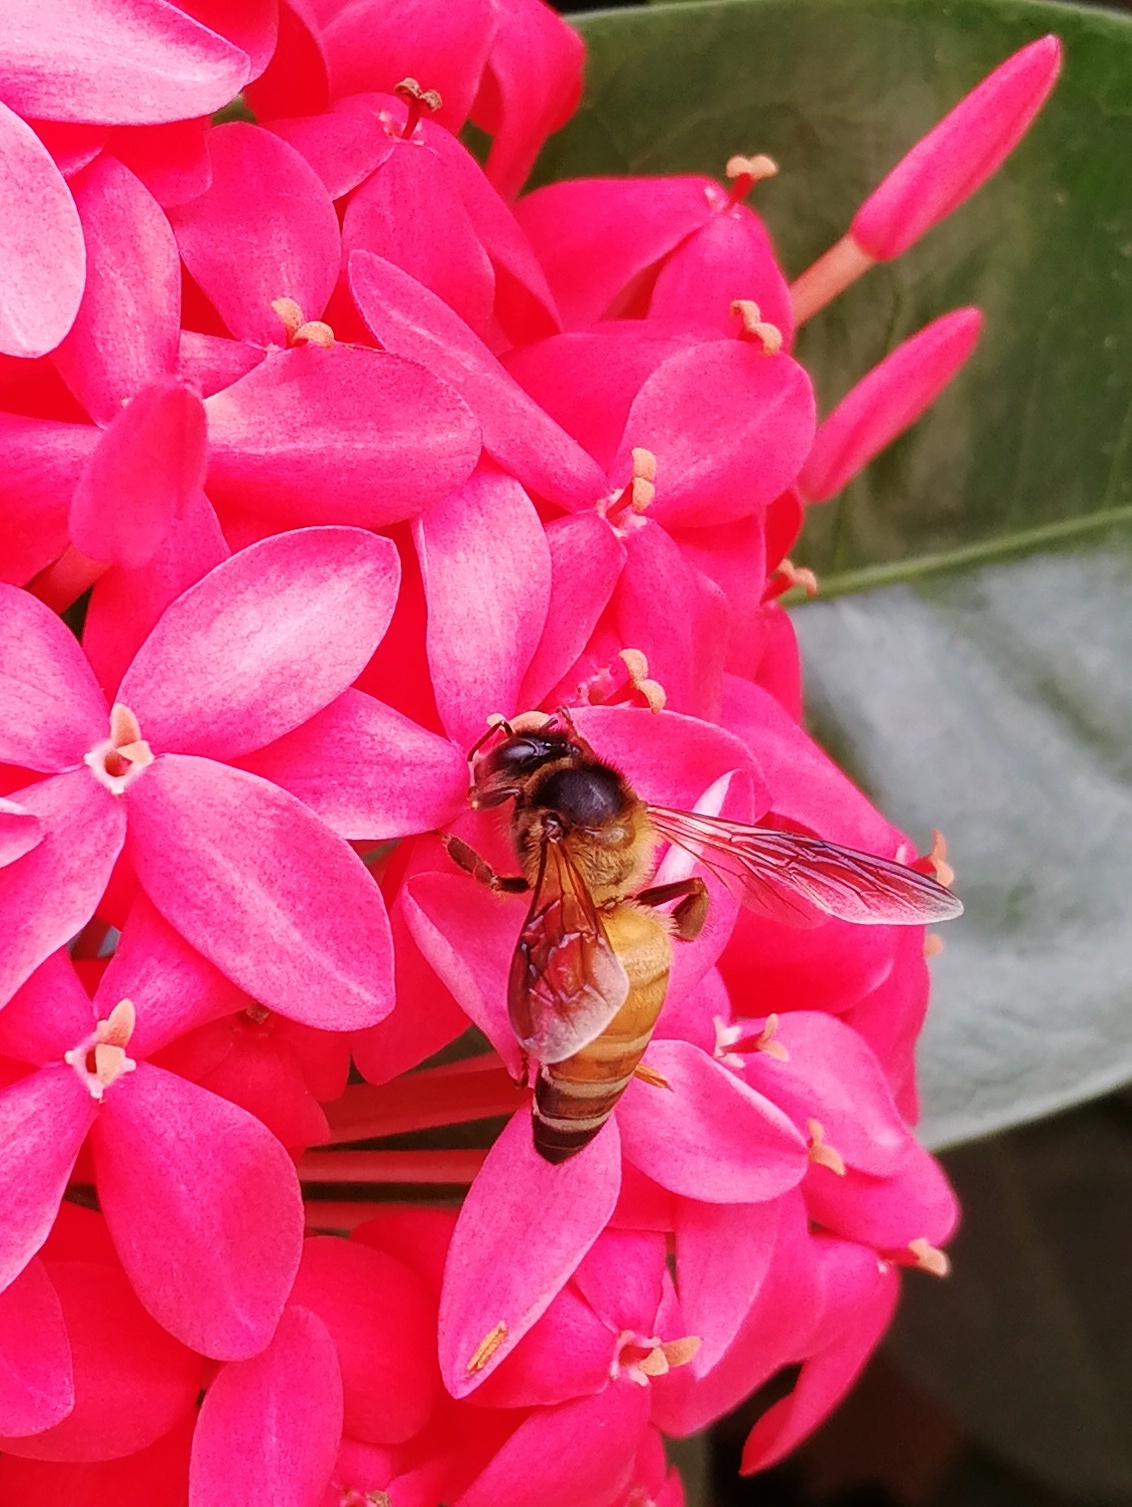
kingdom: Animalia
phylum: Arthropoda
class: Insecta
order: Hymenoptera
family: Apidae
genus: Apis
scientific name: Apis dorsata
